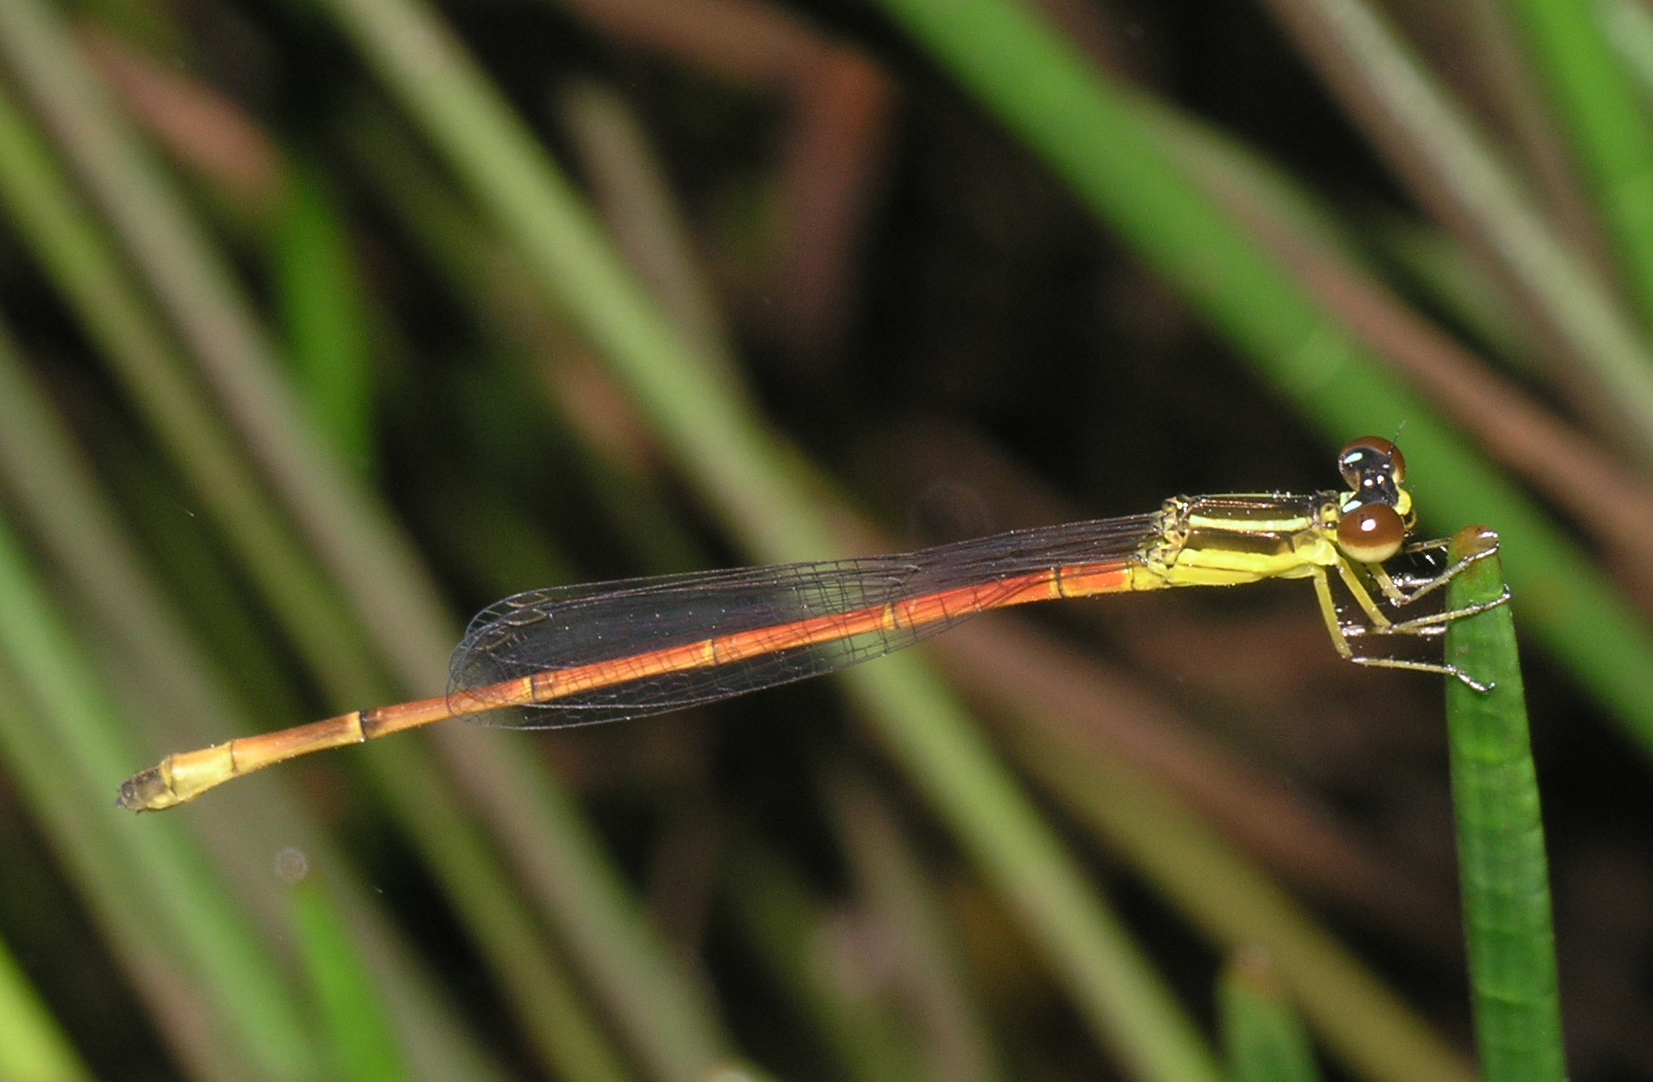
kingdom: Animalia
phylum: Arthropoda
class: Insecta
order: Odonata
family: Coenagrionidae
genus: Argiocnemis
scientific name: Argiocnemis rubescens
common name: Red-tipped shadefly
